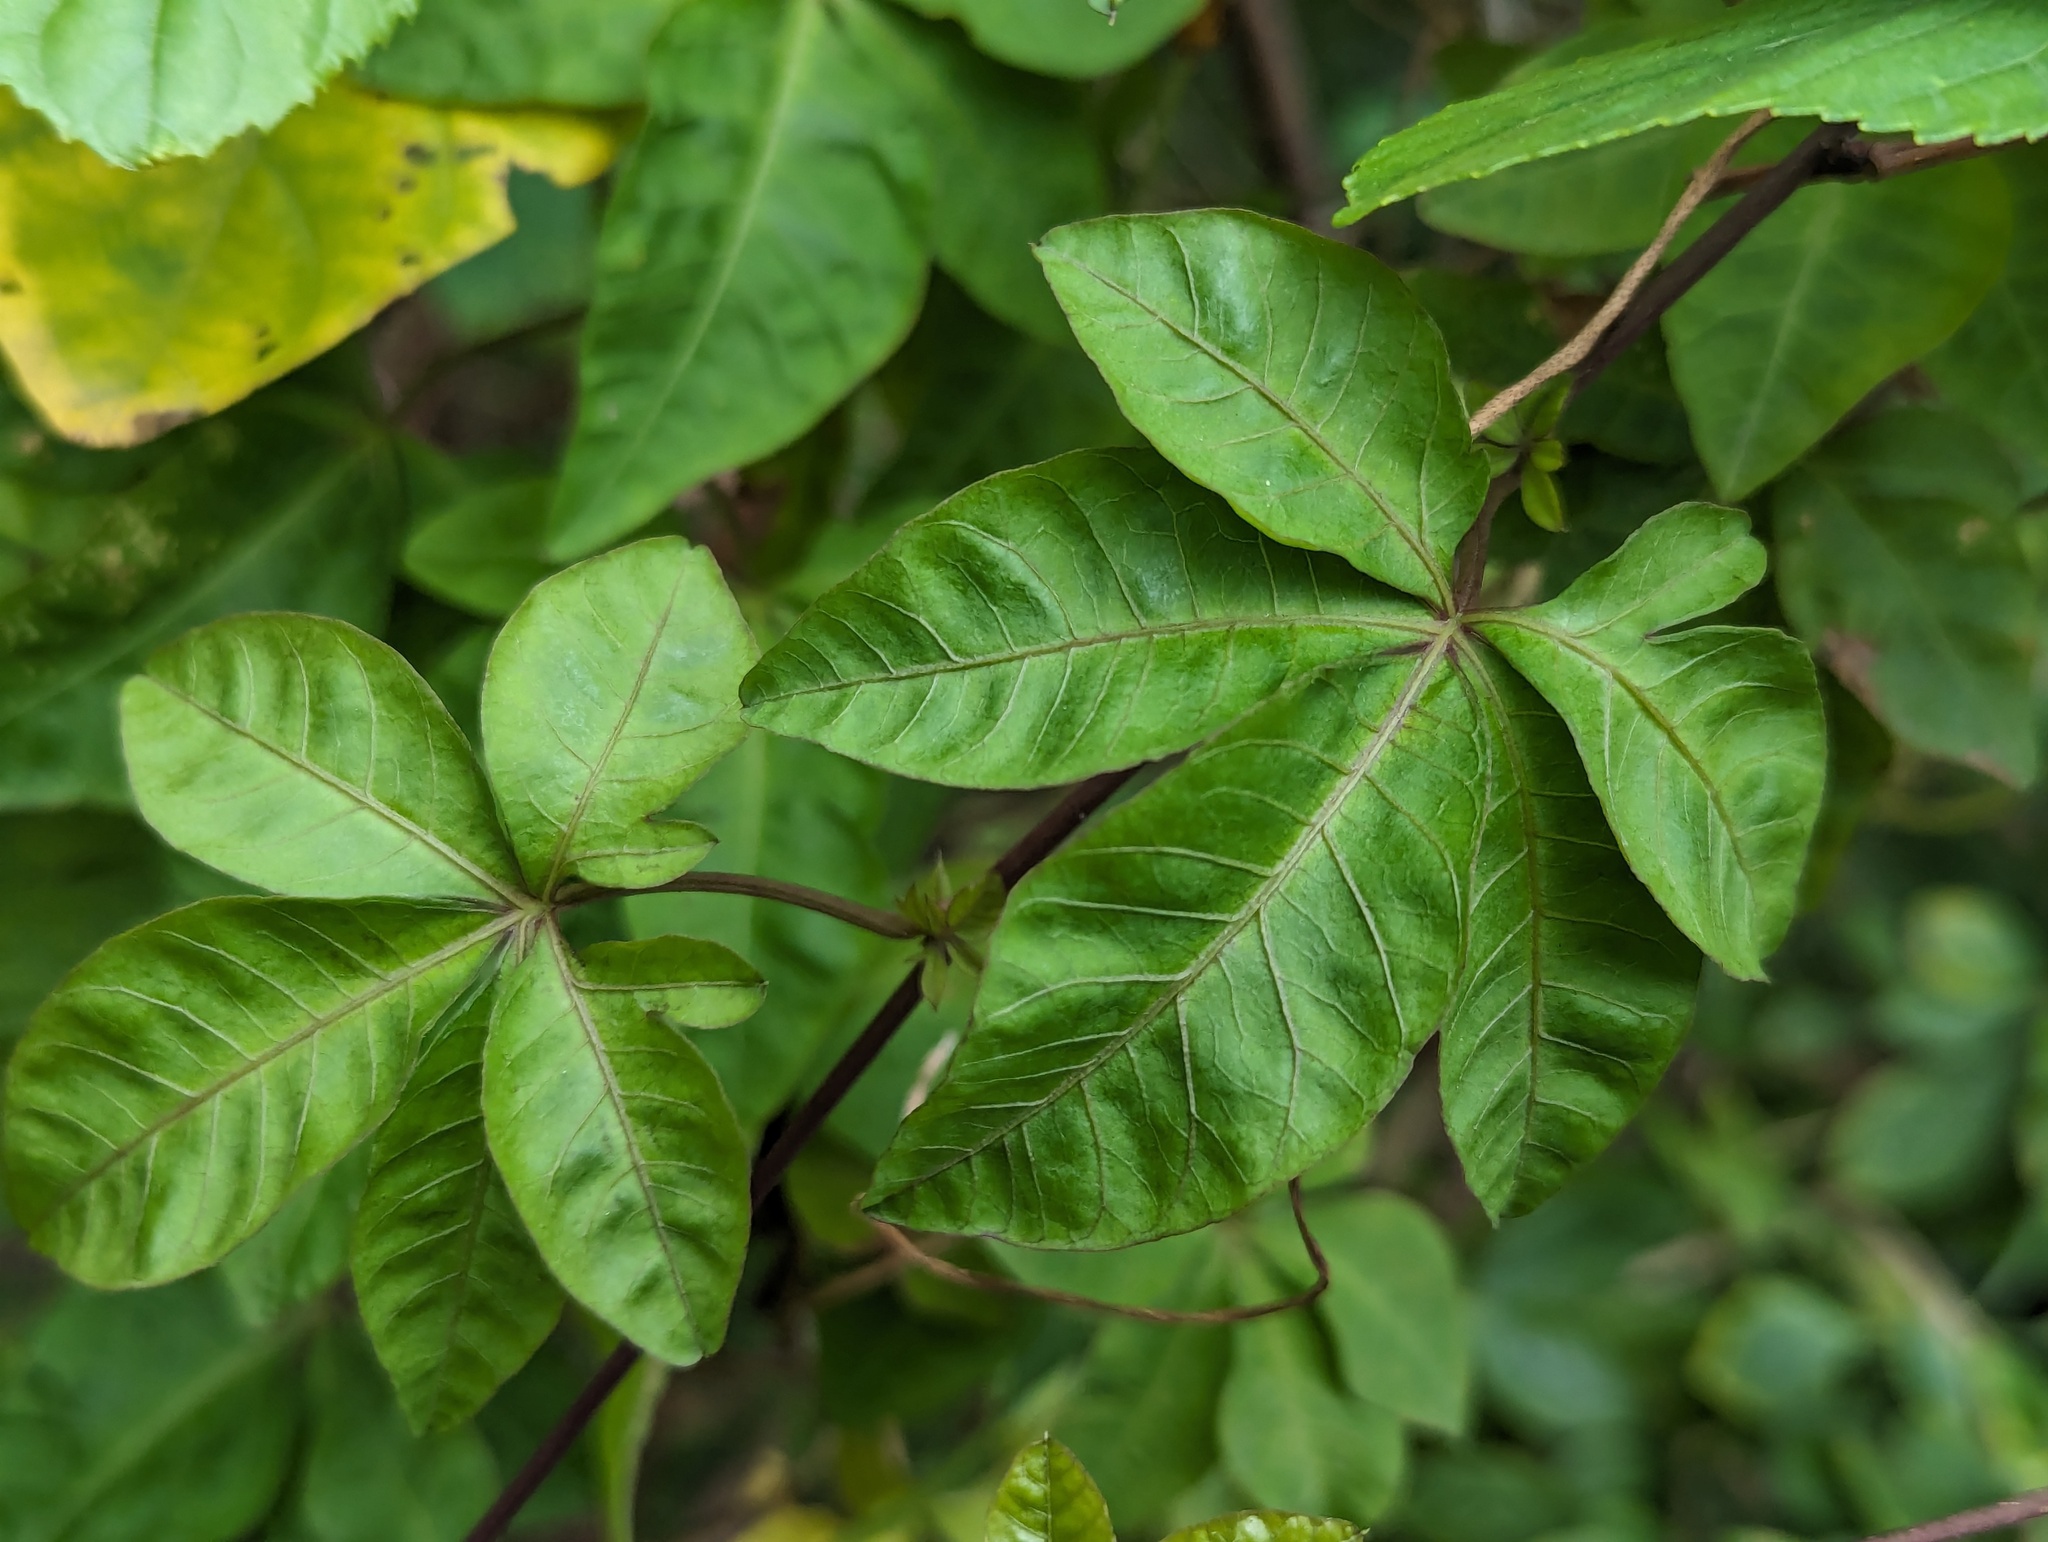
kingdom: Plantae
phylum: Tracheophyta
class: Magnoliopsida
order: Solanales
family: Convolvulaceae
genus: Ipomoea
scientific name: Ipomoea cairica
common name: Mile a minute vine
